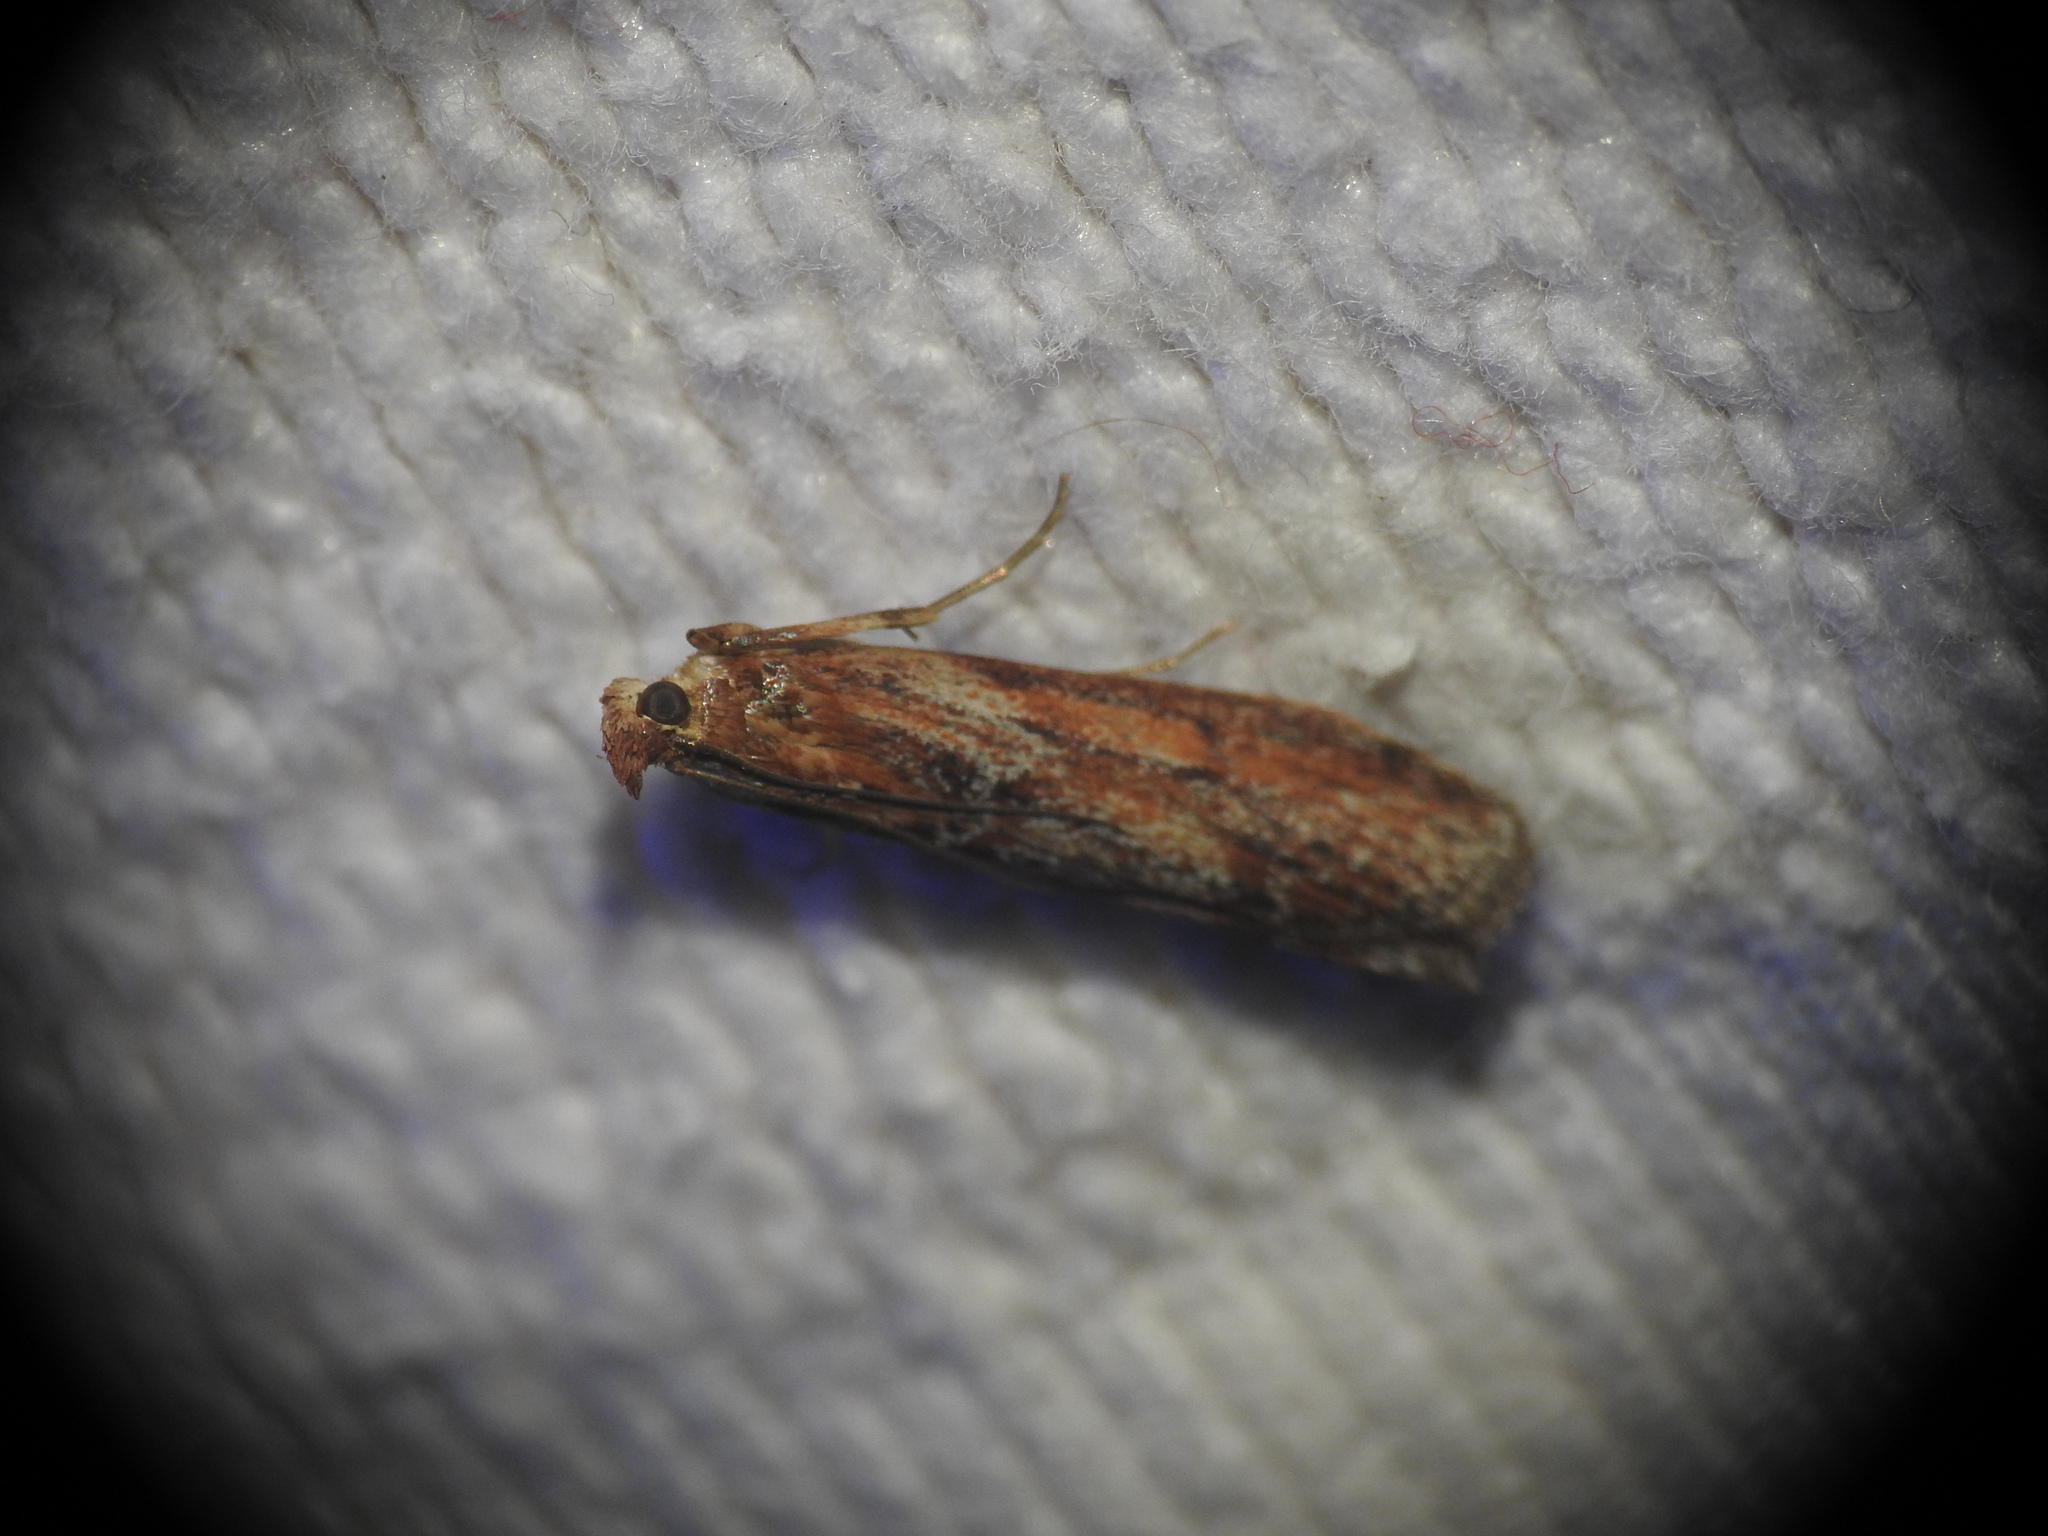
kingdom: Animalia
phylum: Arthropoda
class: Insecta
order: Lepidoptera
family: Pyralidae
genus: Selagia
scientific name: Selagia spadicella
